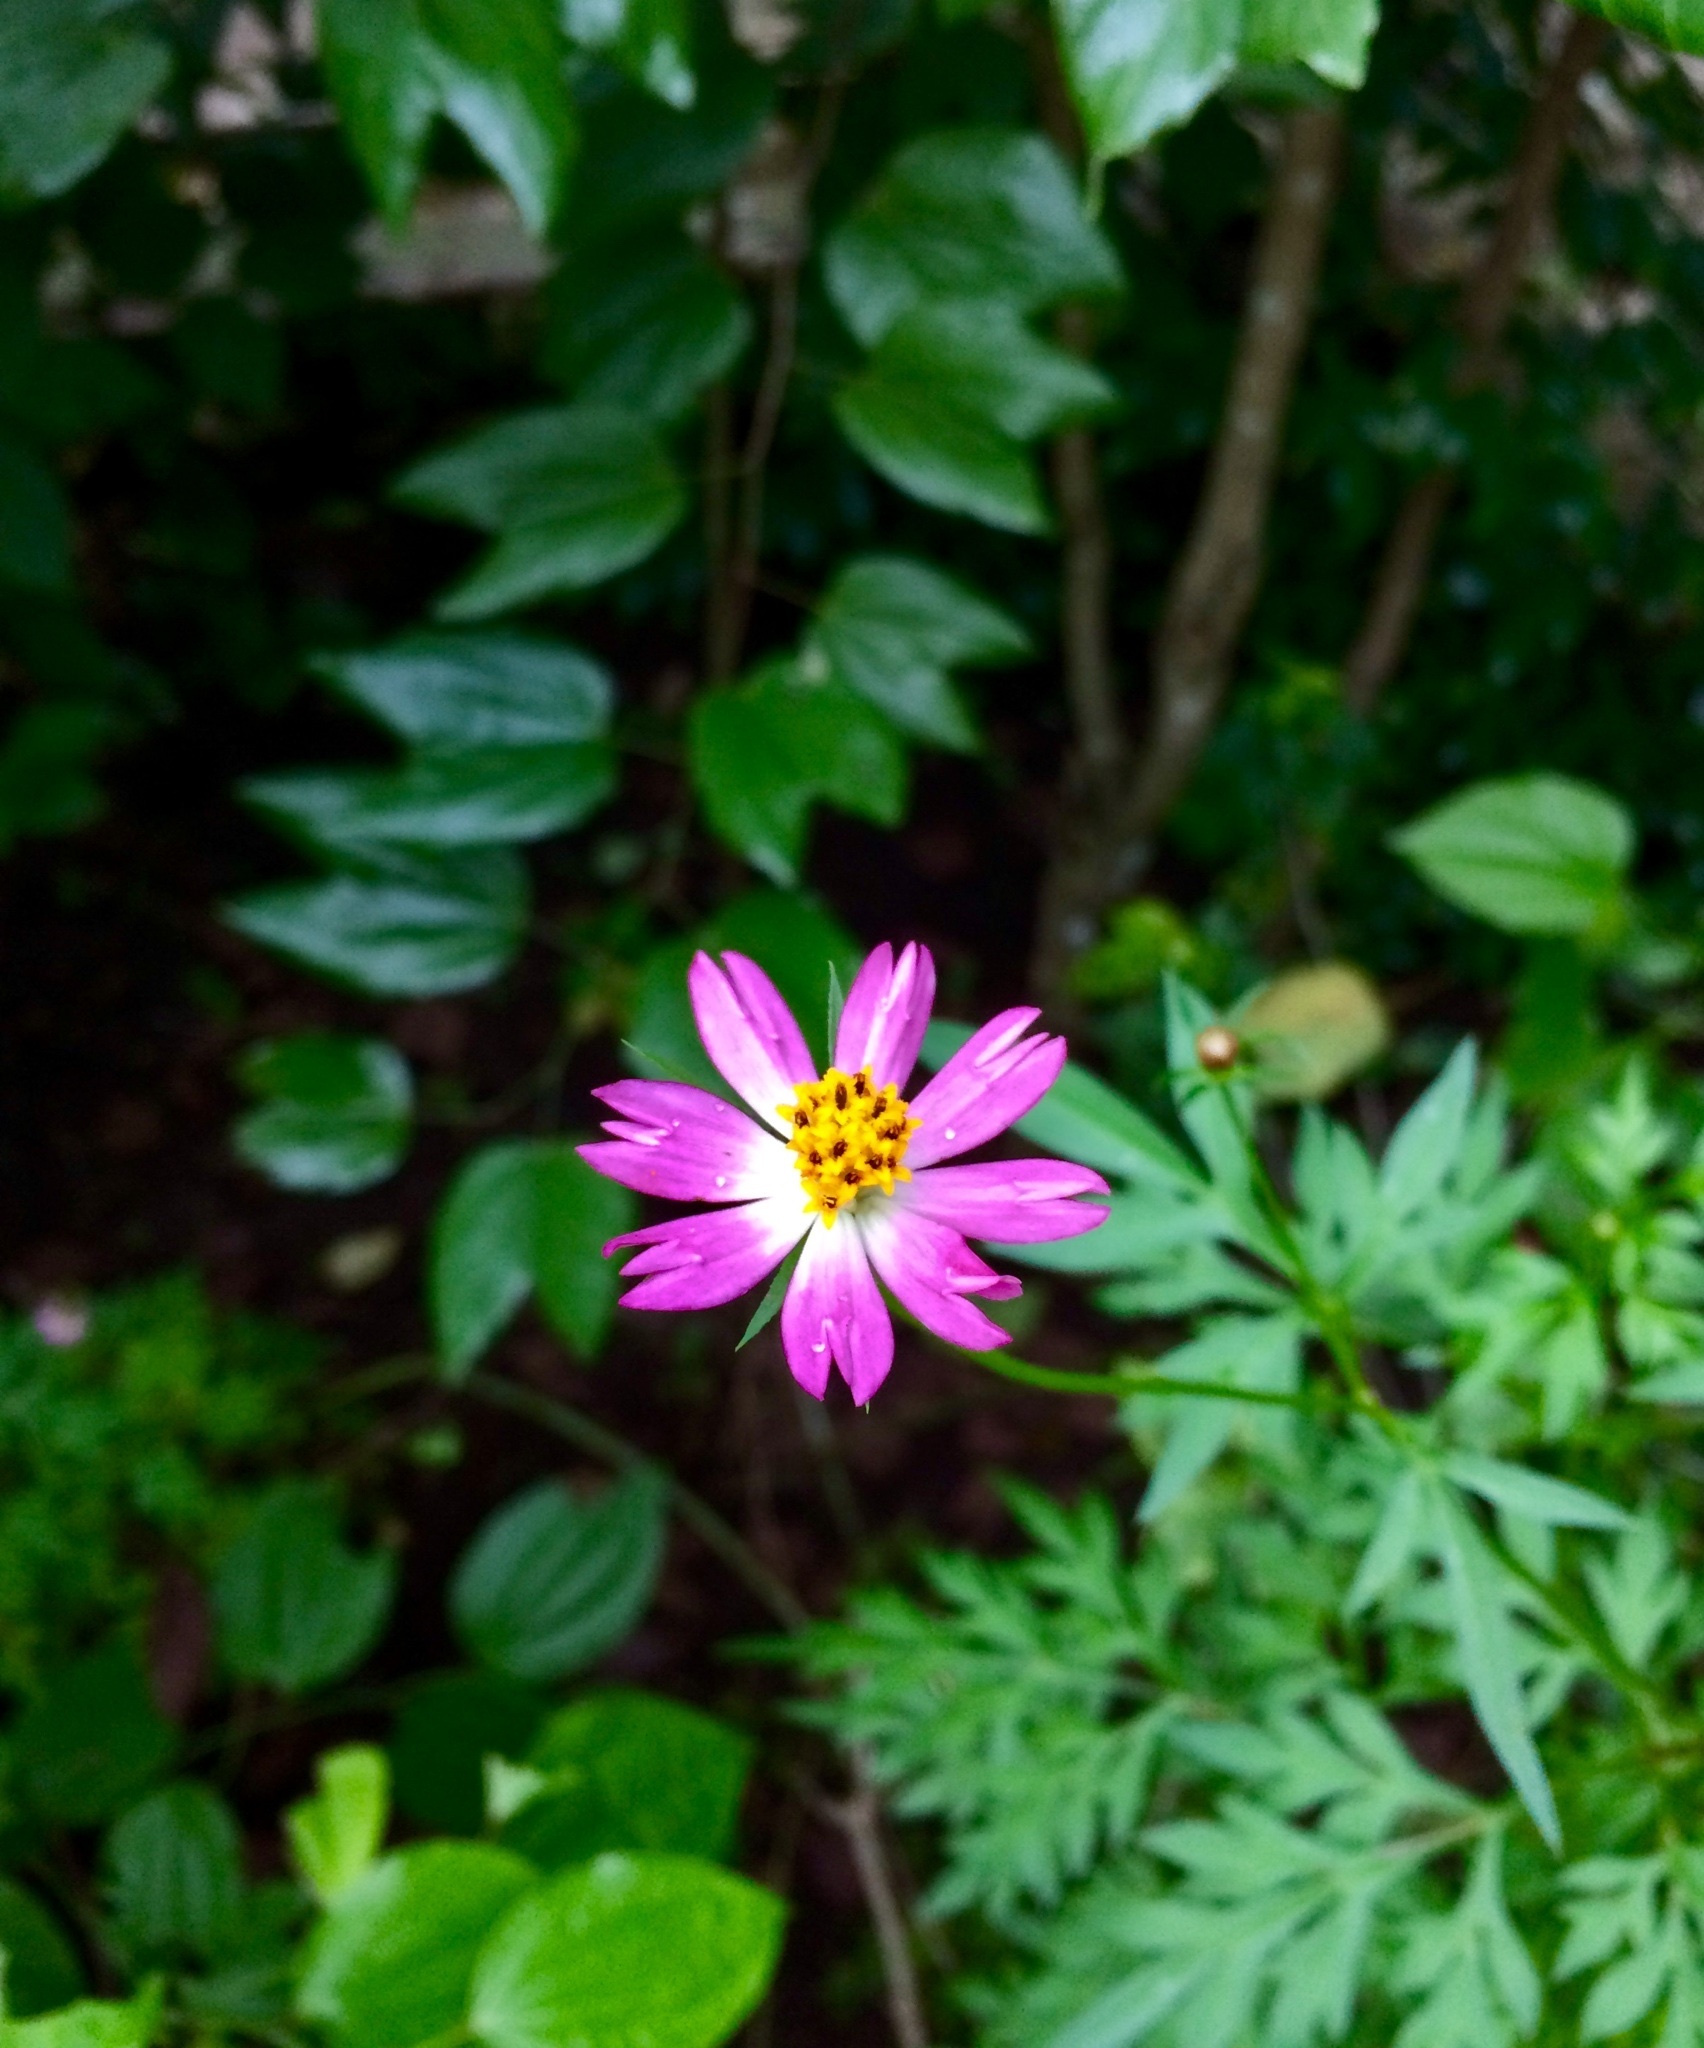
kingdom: Plantae
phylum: Tracheophyta
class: Magnoliopsida
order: Asterales
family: Asteraceae
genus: Cosmos
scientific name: Cosmos caudatus
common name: Wild cosmos
